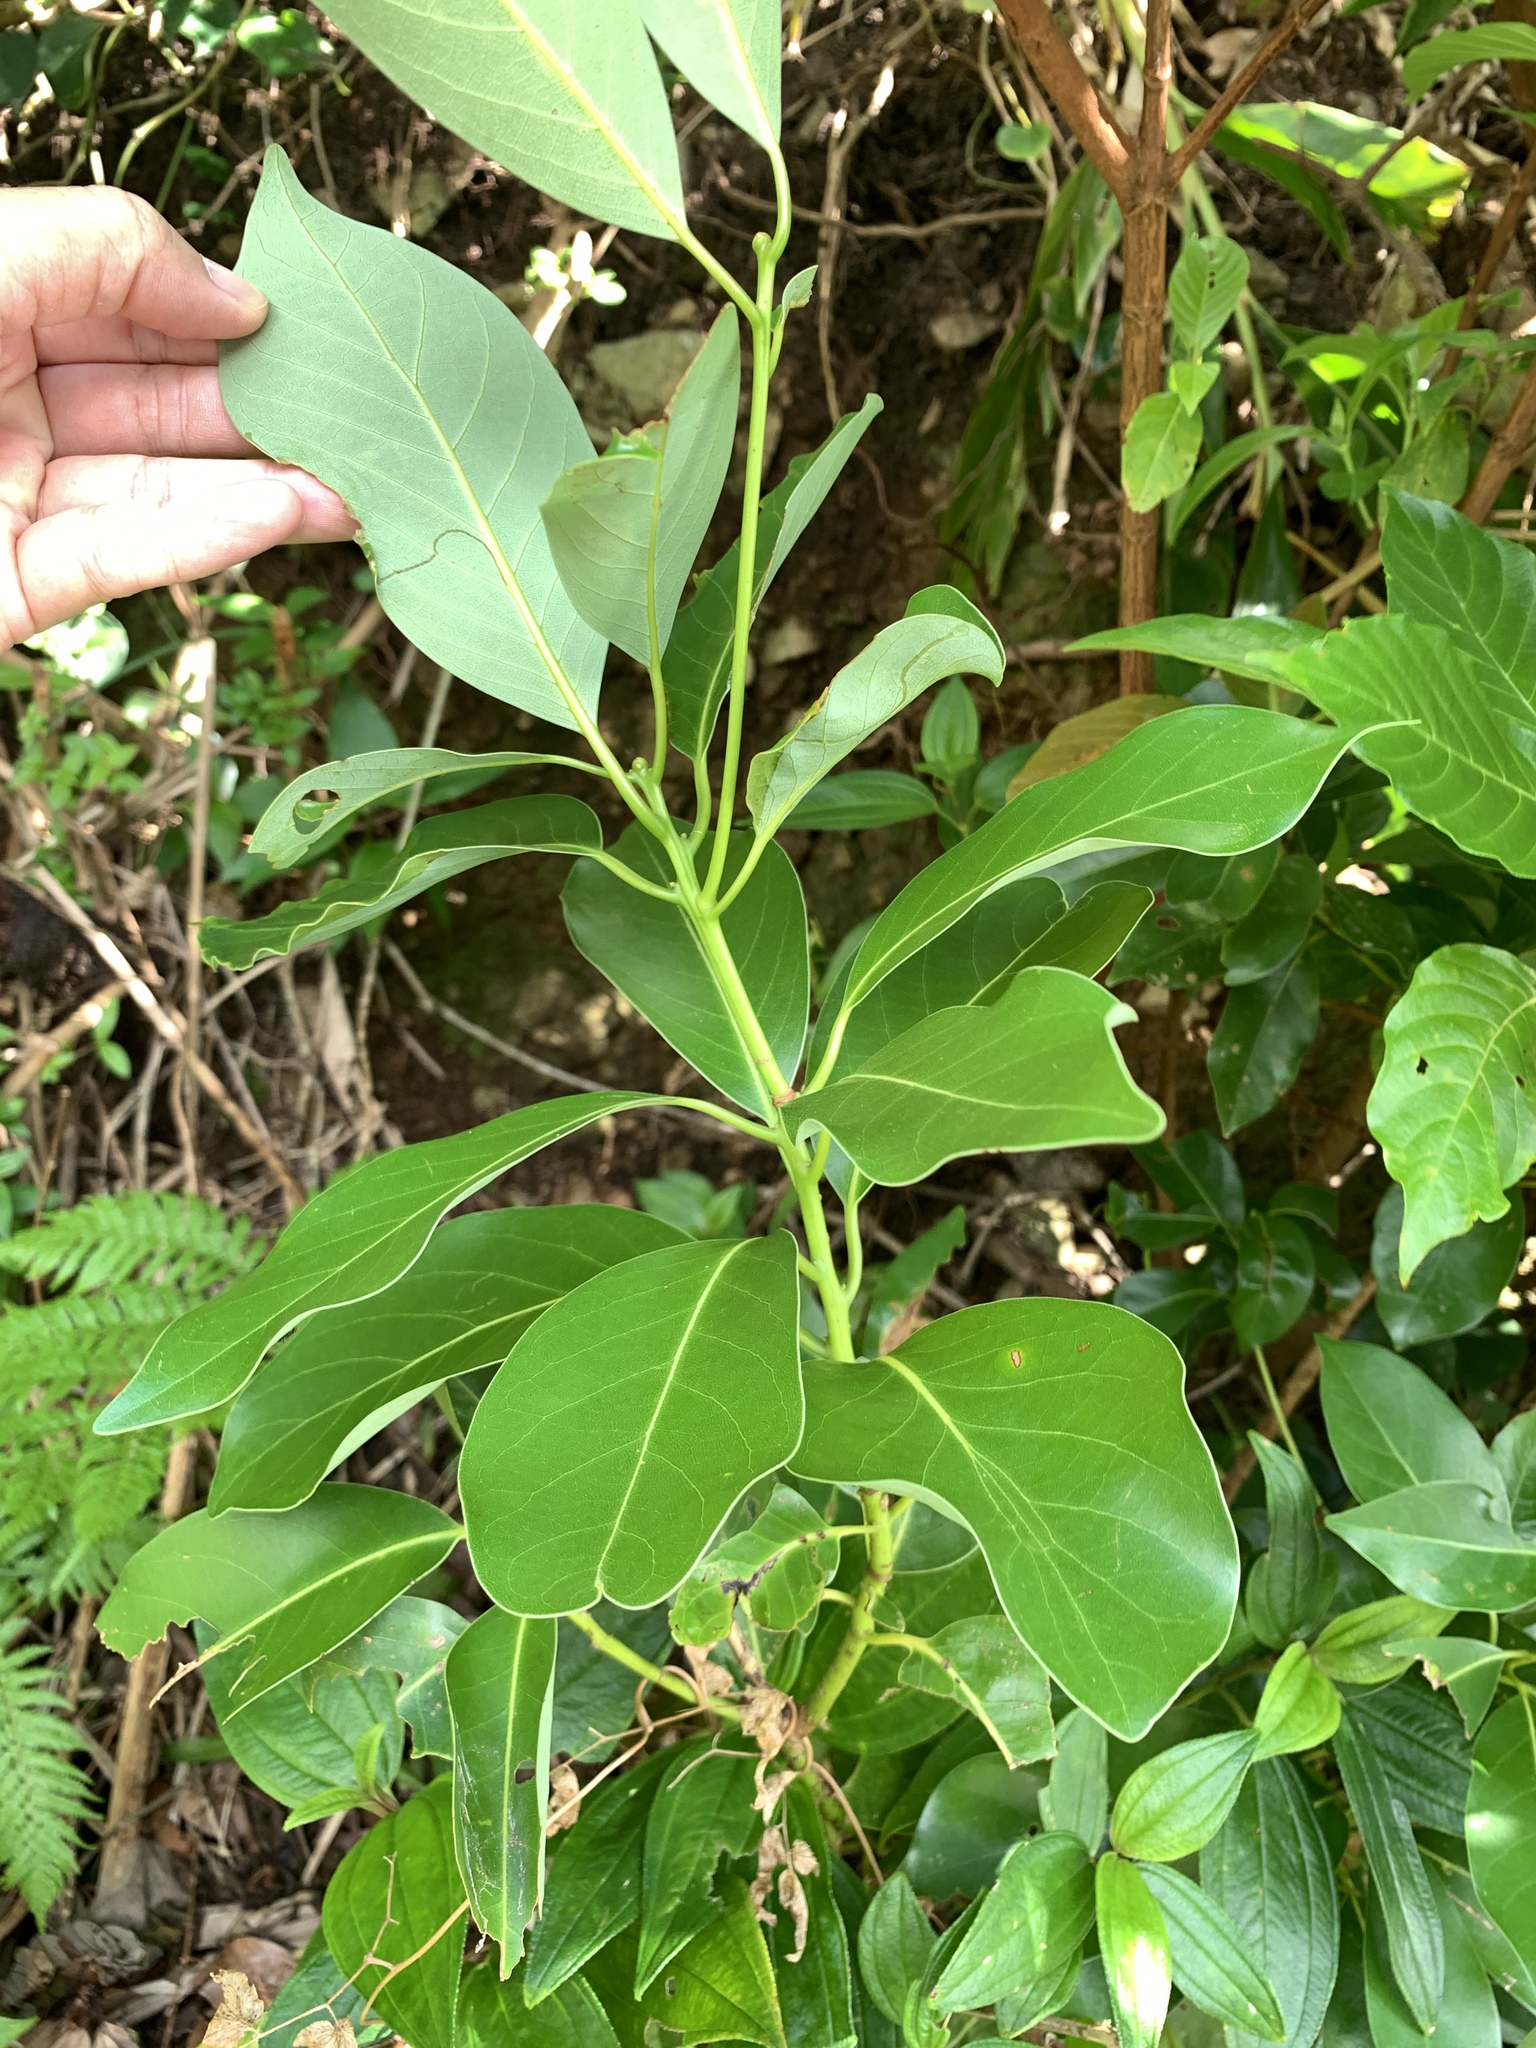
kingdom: Plantae
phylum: Tracheophyta
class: Magnoliopsida
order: Laurales
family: Lauraceae
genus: Machilus
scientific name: Machilus thunbergii
